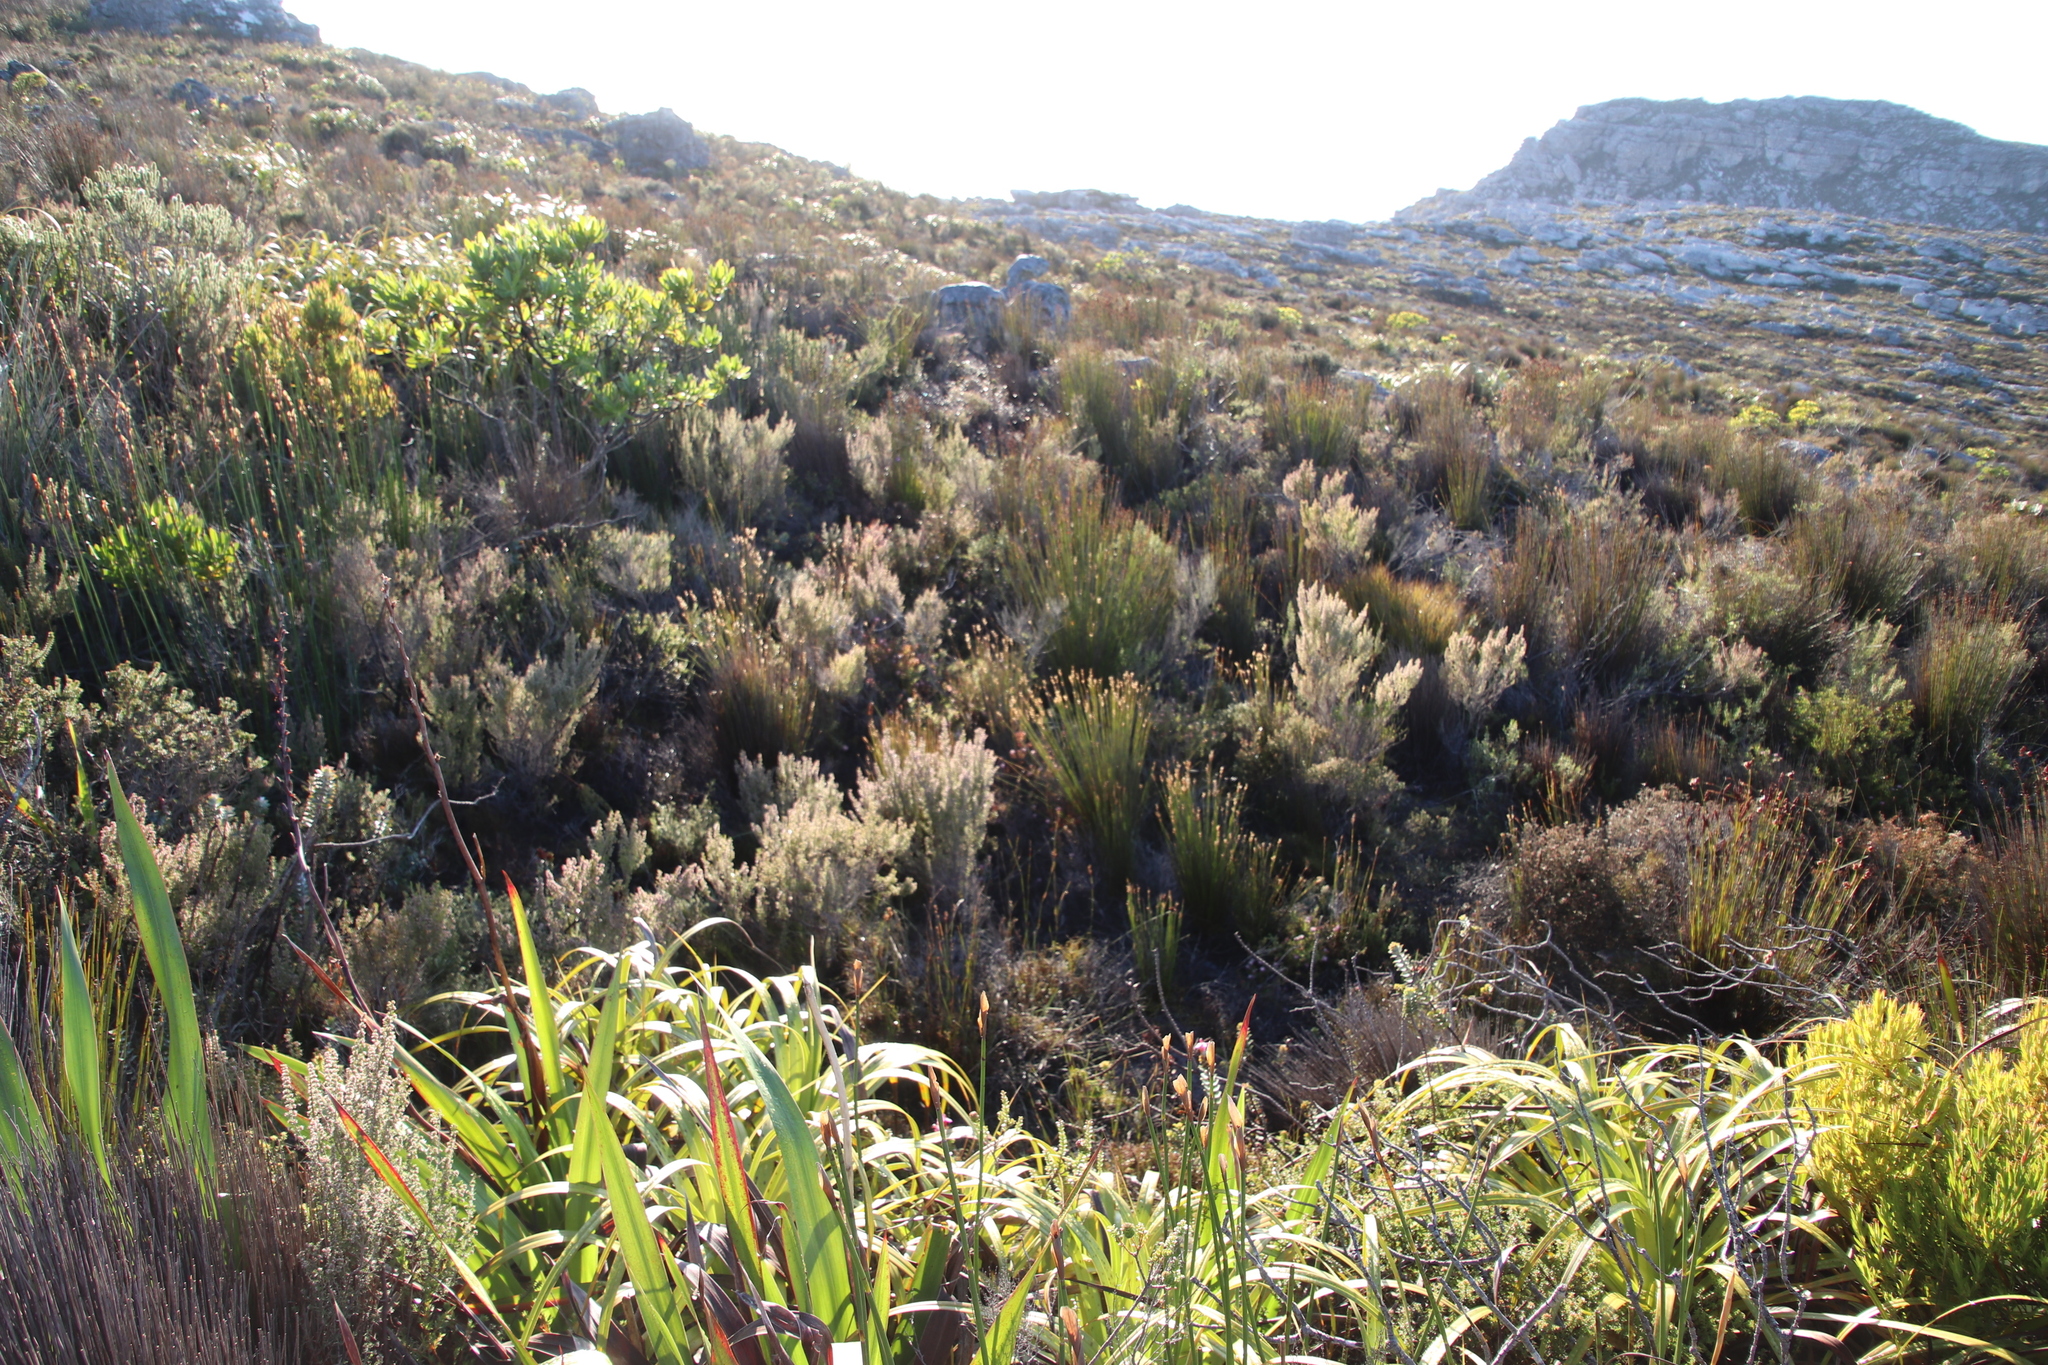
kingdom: Plantae
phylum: Tracheophyta
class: Magnoliopsida
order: Ericales
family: Ericaceae
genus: Erica
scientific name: Erica hispidula
